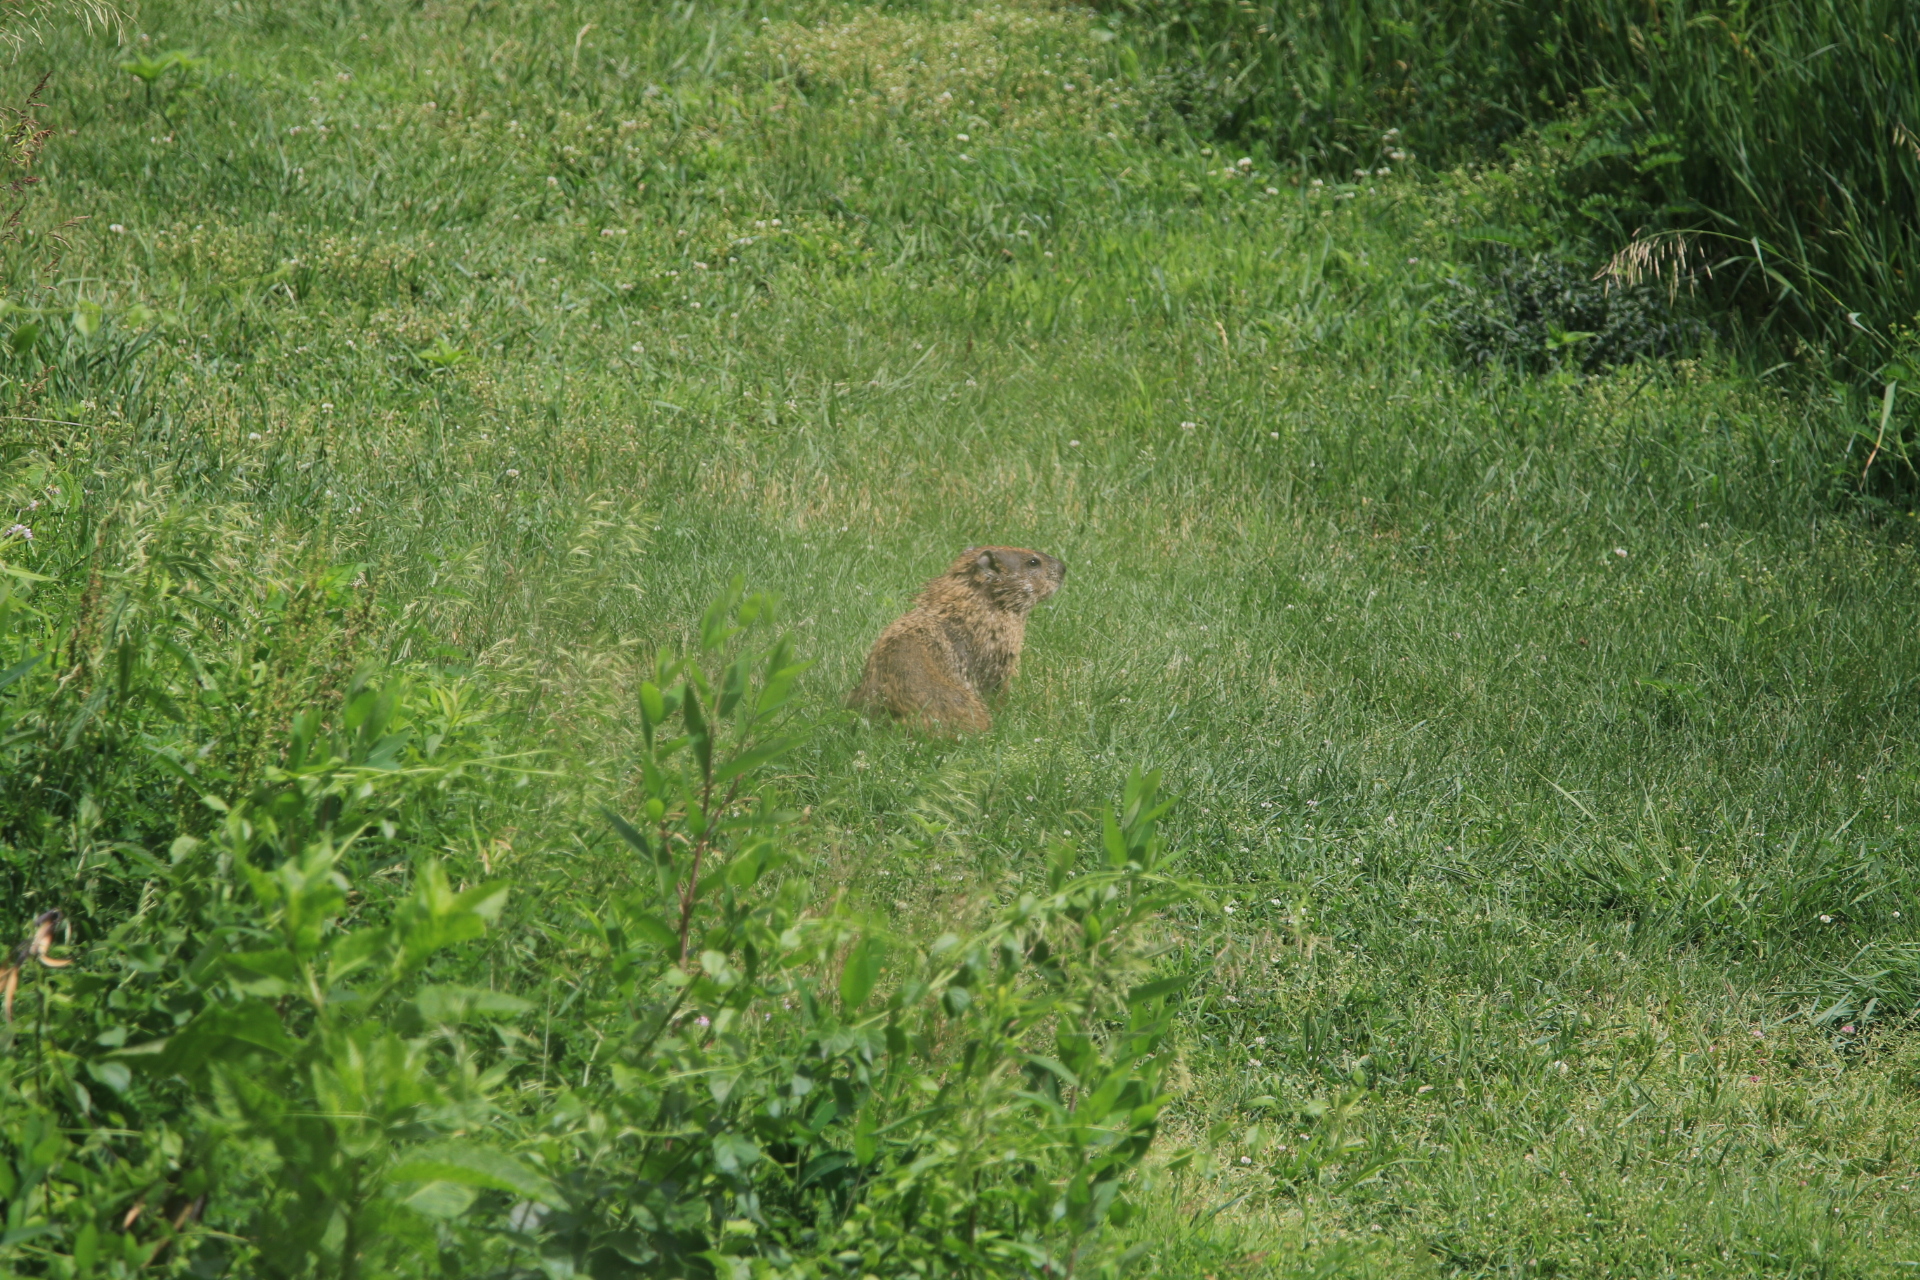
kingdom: Animalia
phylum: Chordata
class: Mammalia
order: Rodentia
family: Sciuridae
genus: Marmota
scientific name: Marmota monax
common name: Groundhog
